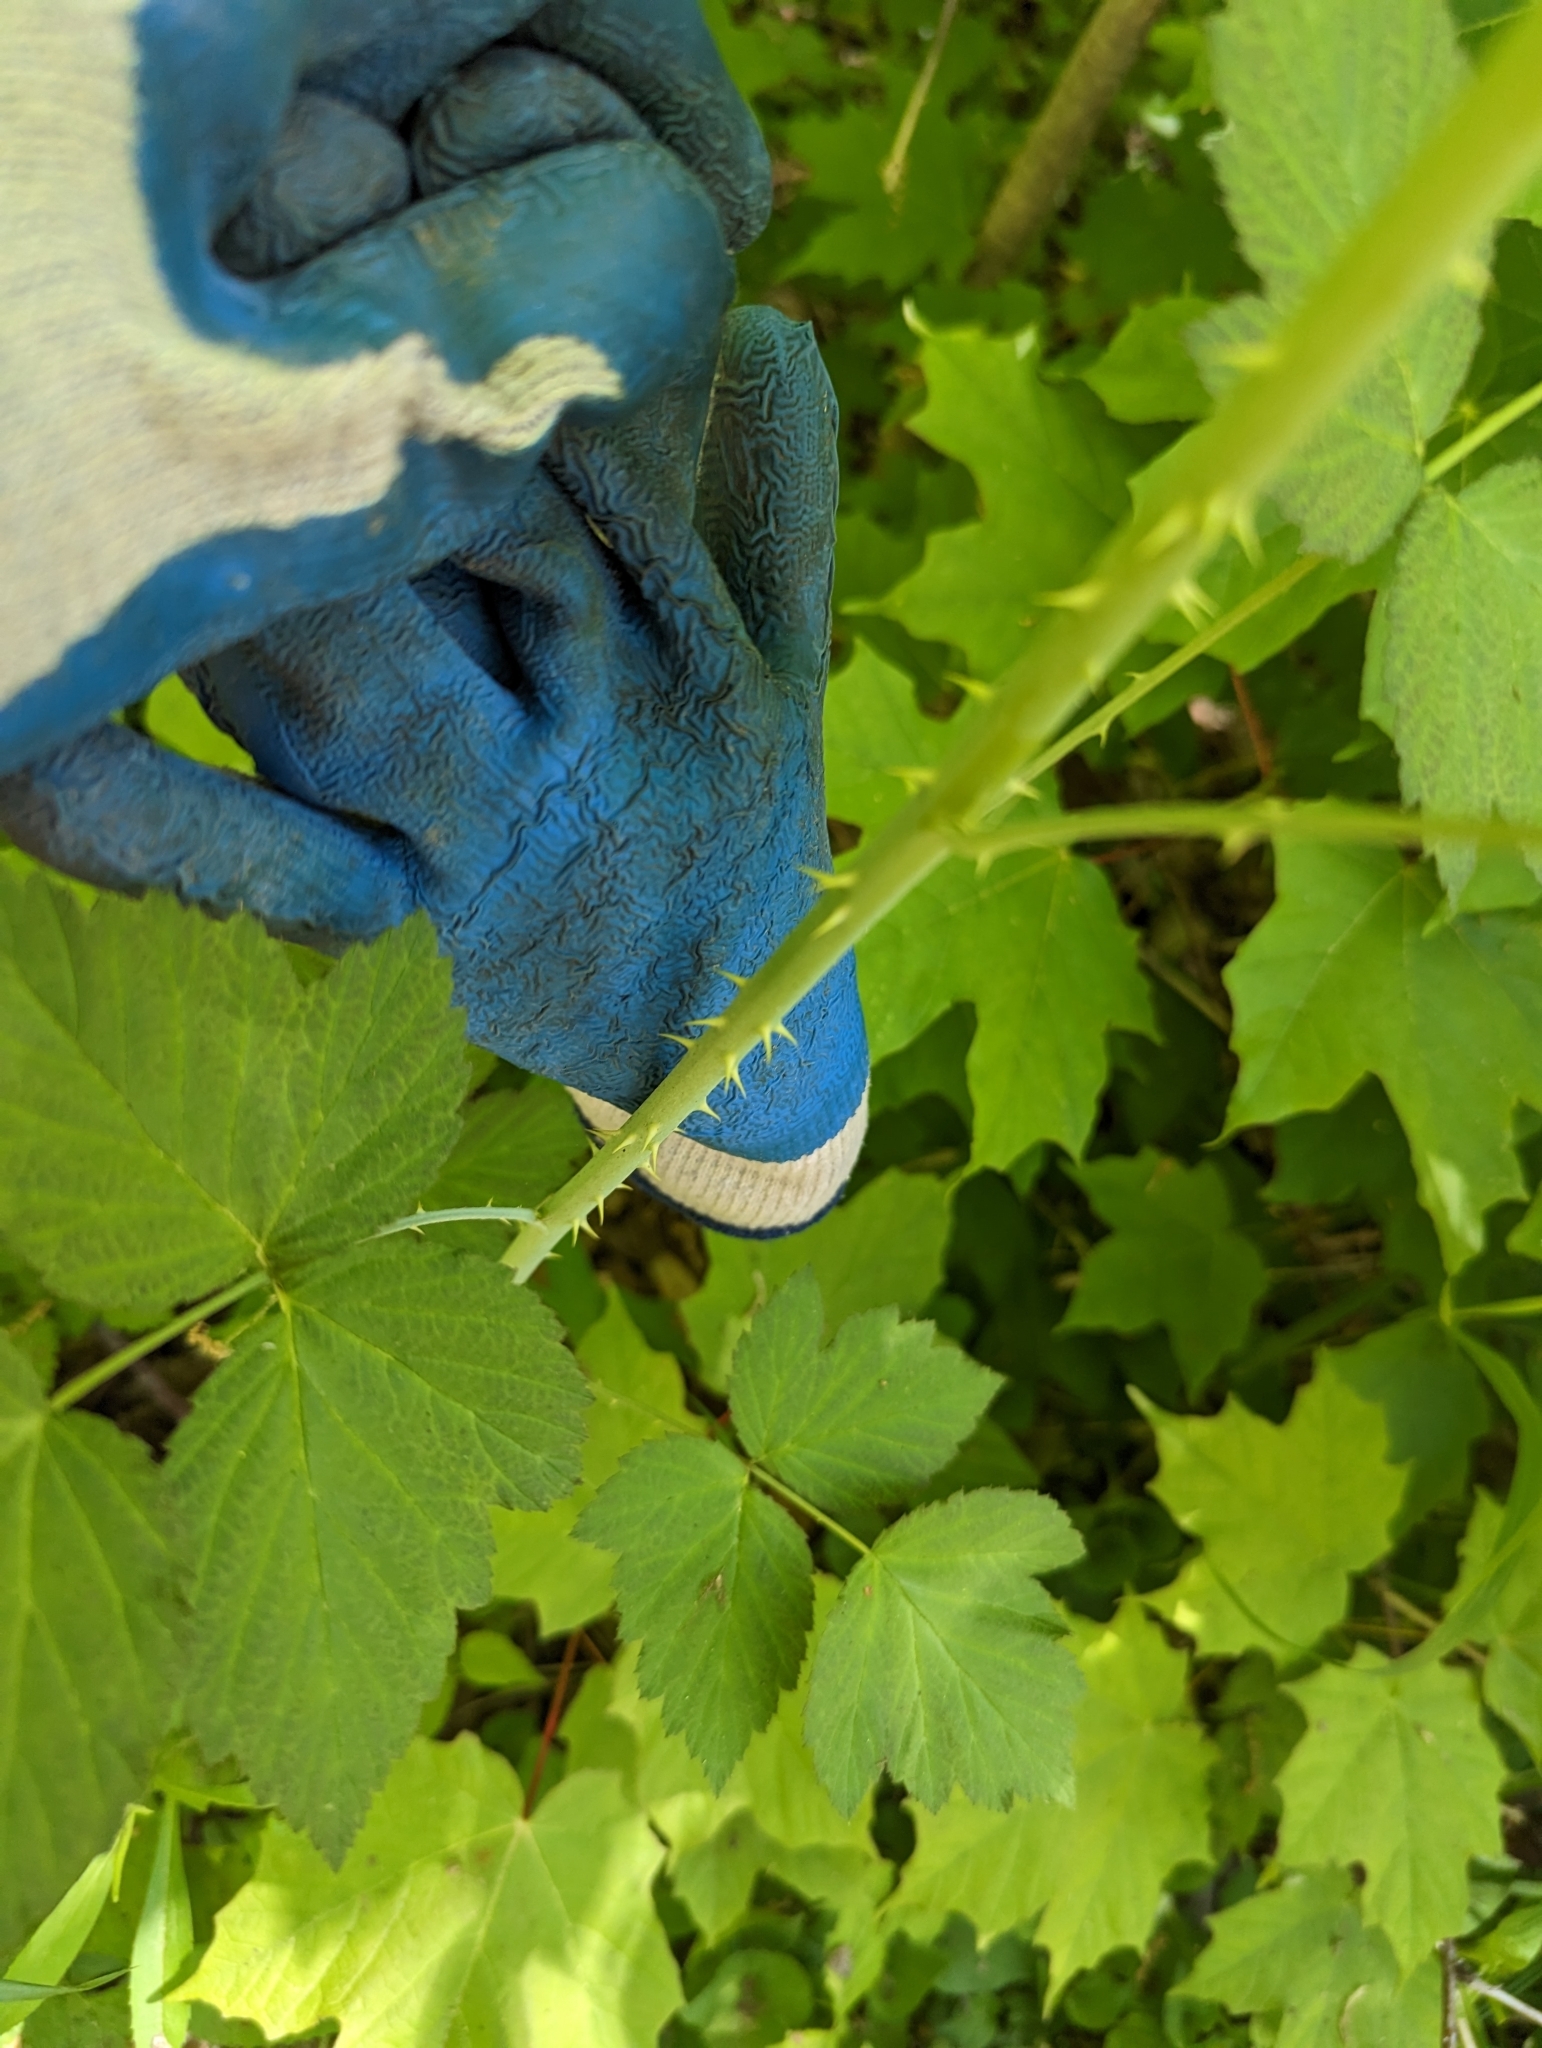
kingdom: Plantae
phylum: Tracheophyta
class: Magnoliopsida
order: Rosales
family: Rosaceae
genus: Rubus
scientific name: Rubus allegheniensis
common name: Allegheny blackberry
